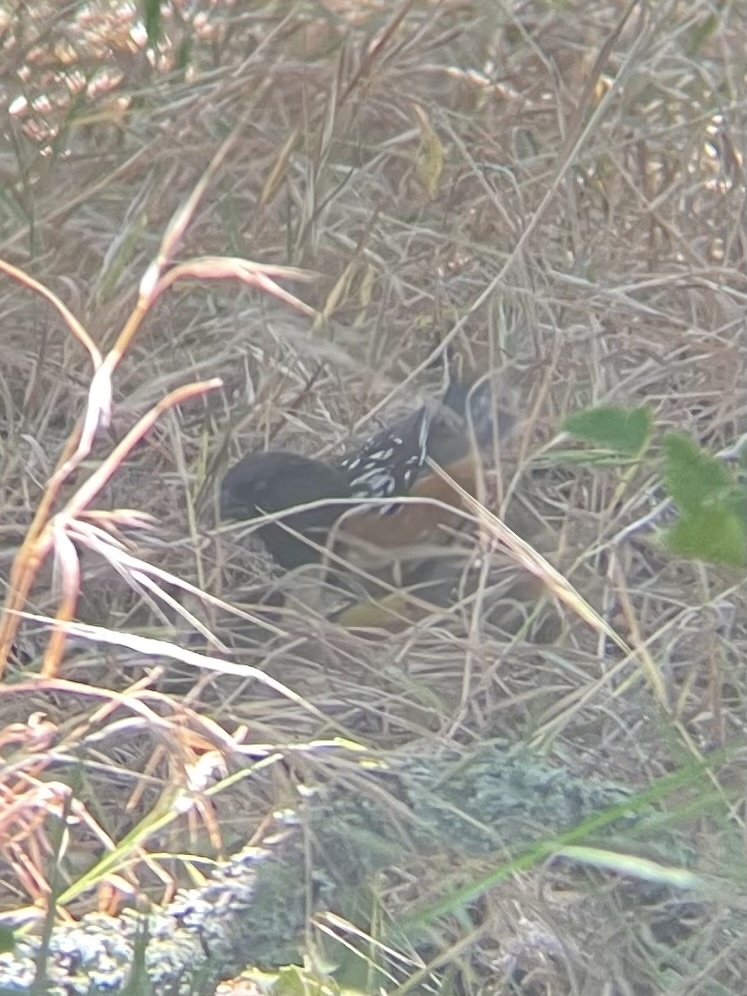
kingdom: Animalia
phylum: Chordata
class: Aves
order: Passeriformes
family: Passerellidae
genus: Pipilo
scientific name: Pipilo maculatus
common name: Spotted towhee
